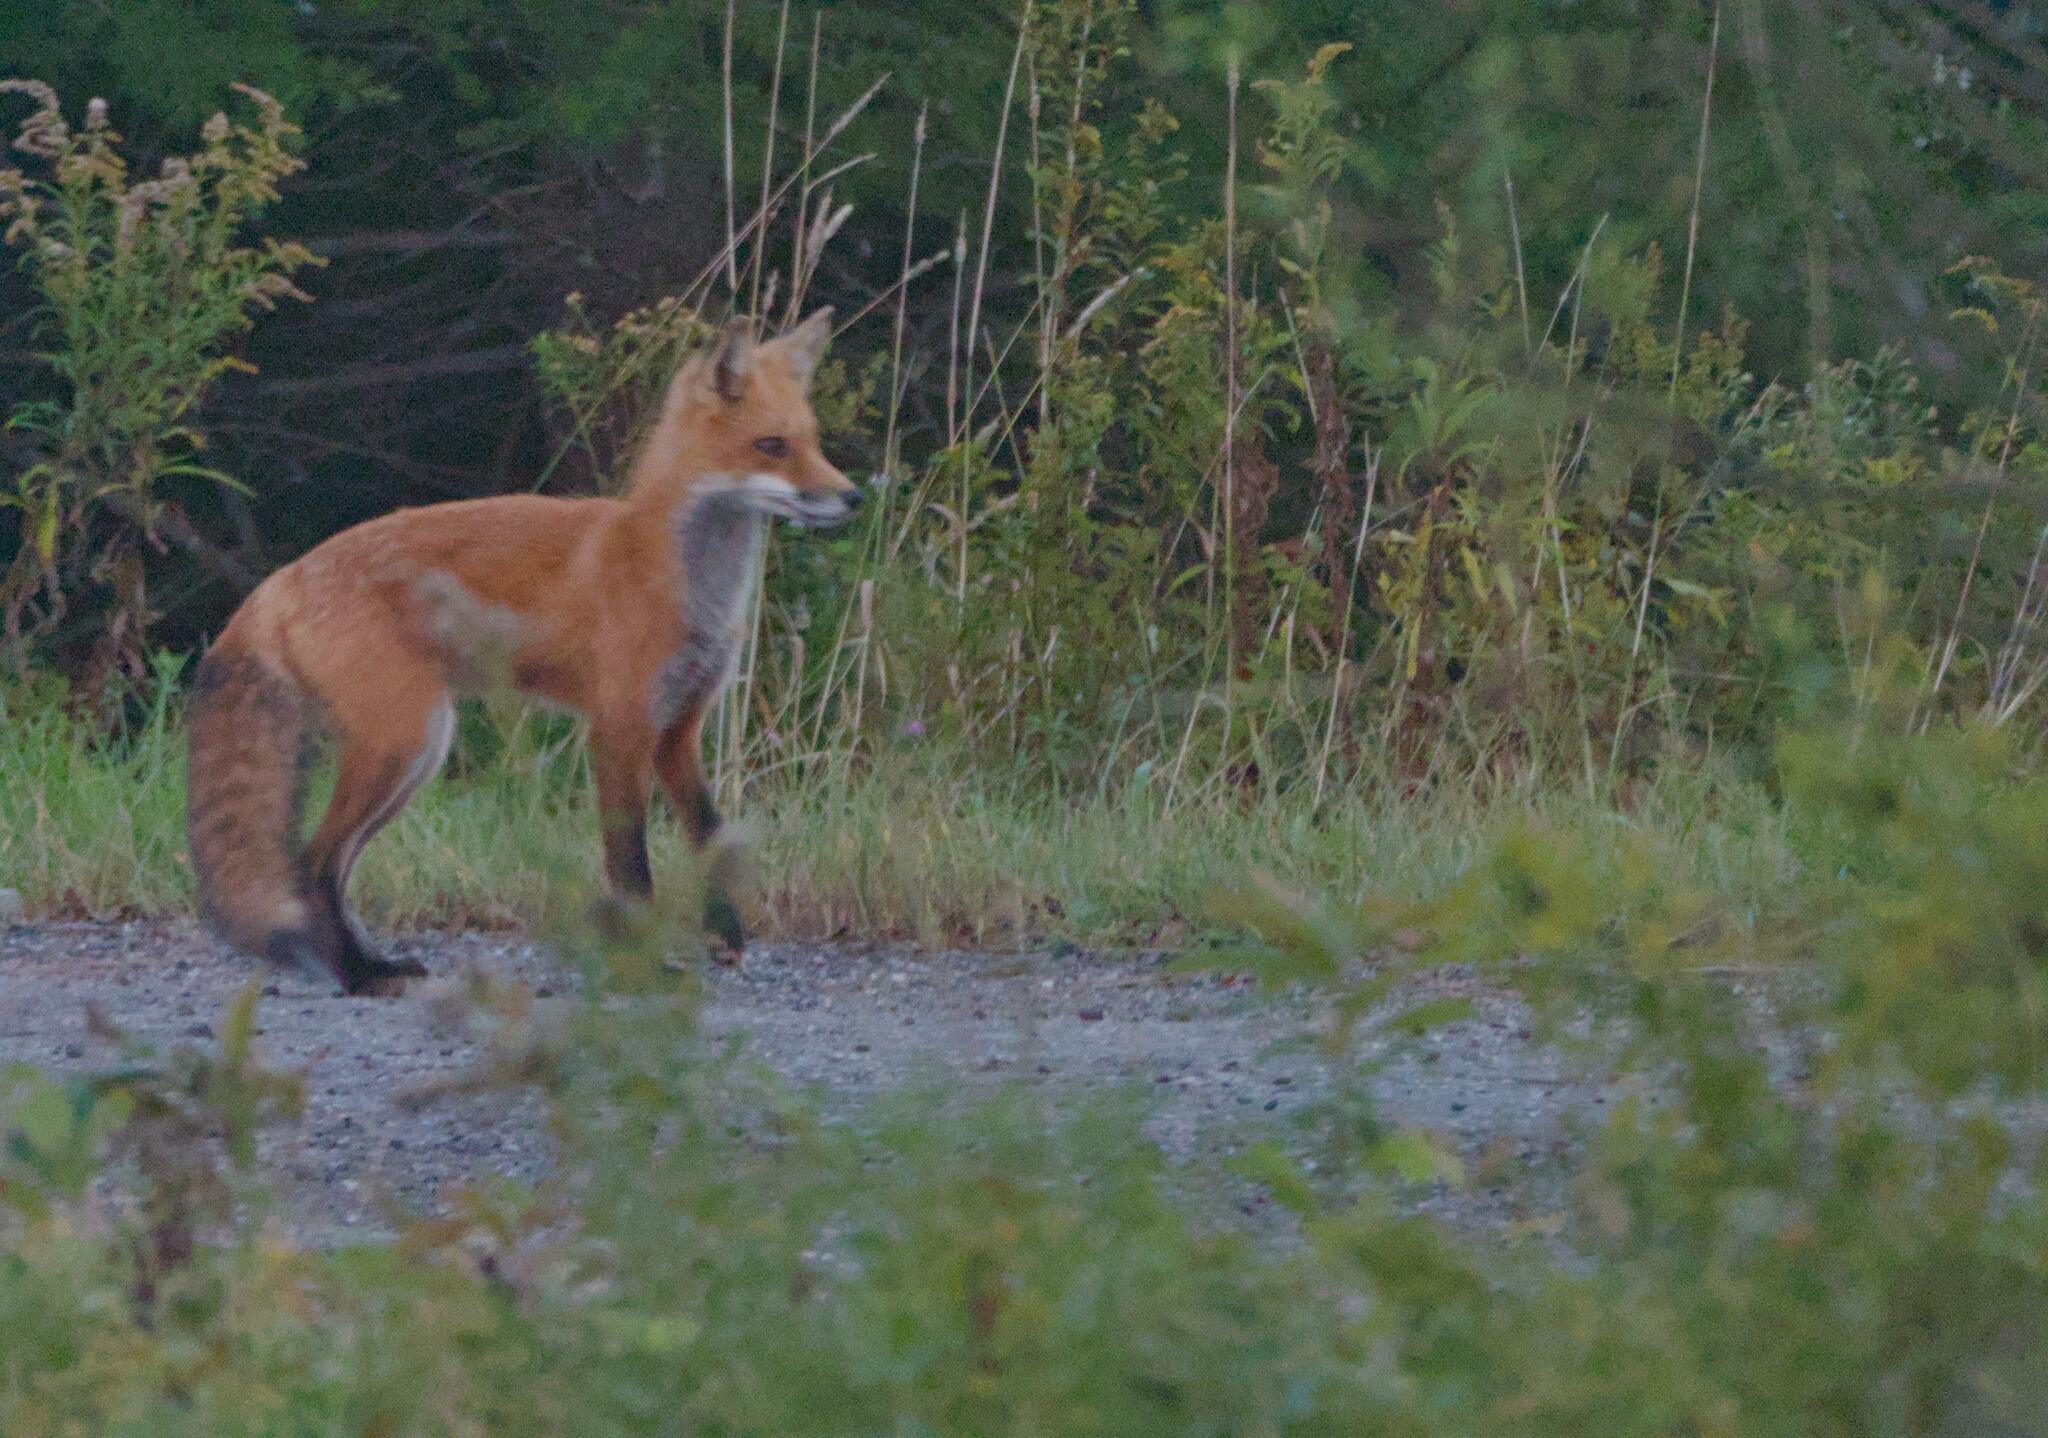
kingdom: Animalia
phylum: Chordata
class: Mammalia
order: Carnivora
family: Canidae
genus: Vulpes
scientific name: Vulpes vulpes
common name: Red fox
